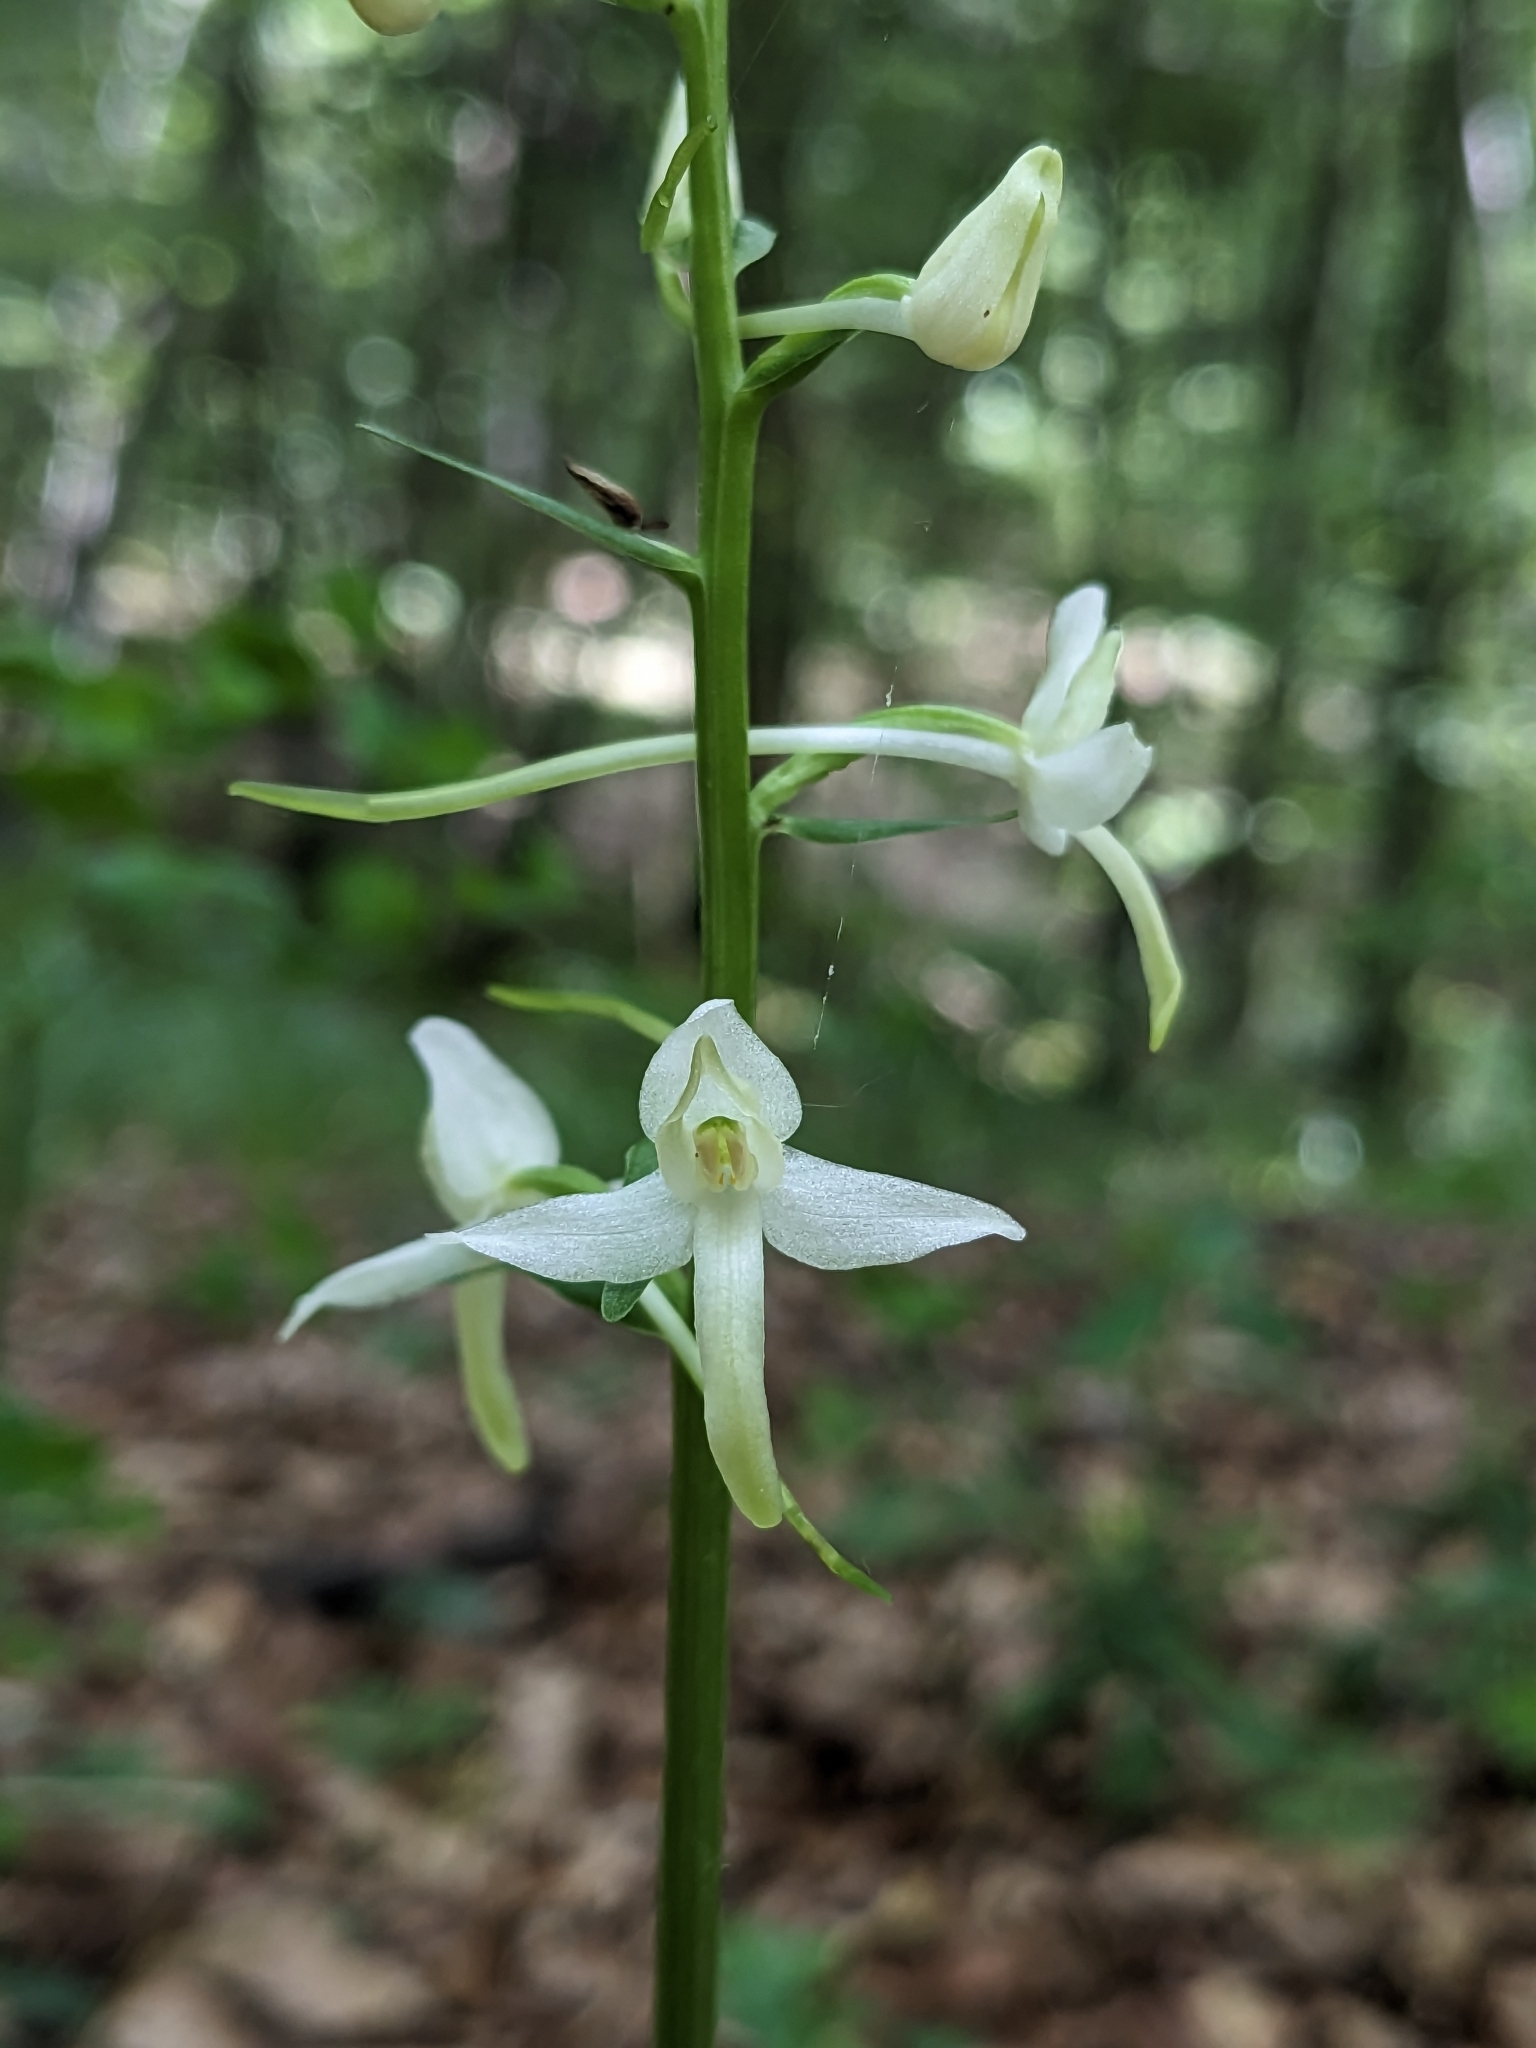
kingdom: Plantae
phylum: Tracheophyta
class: Liliopsida
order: Asparagales
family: Orchidaceae
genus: Platanthera
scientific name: Platanthera bifolia
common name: Lesser butterfly-orchid
